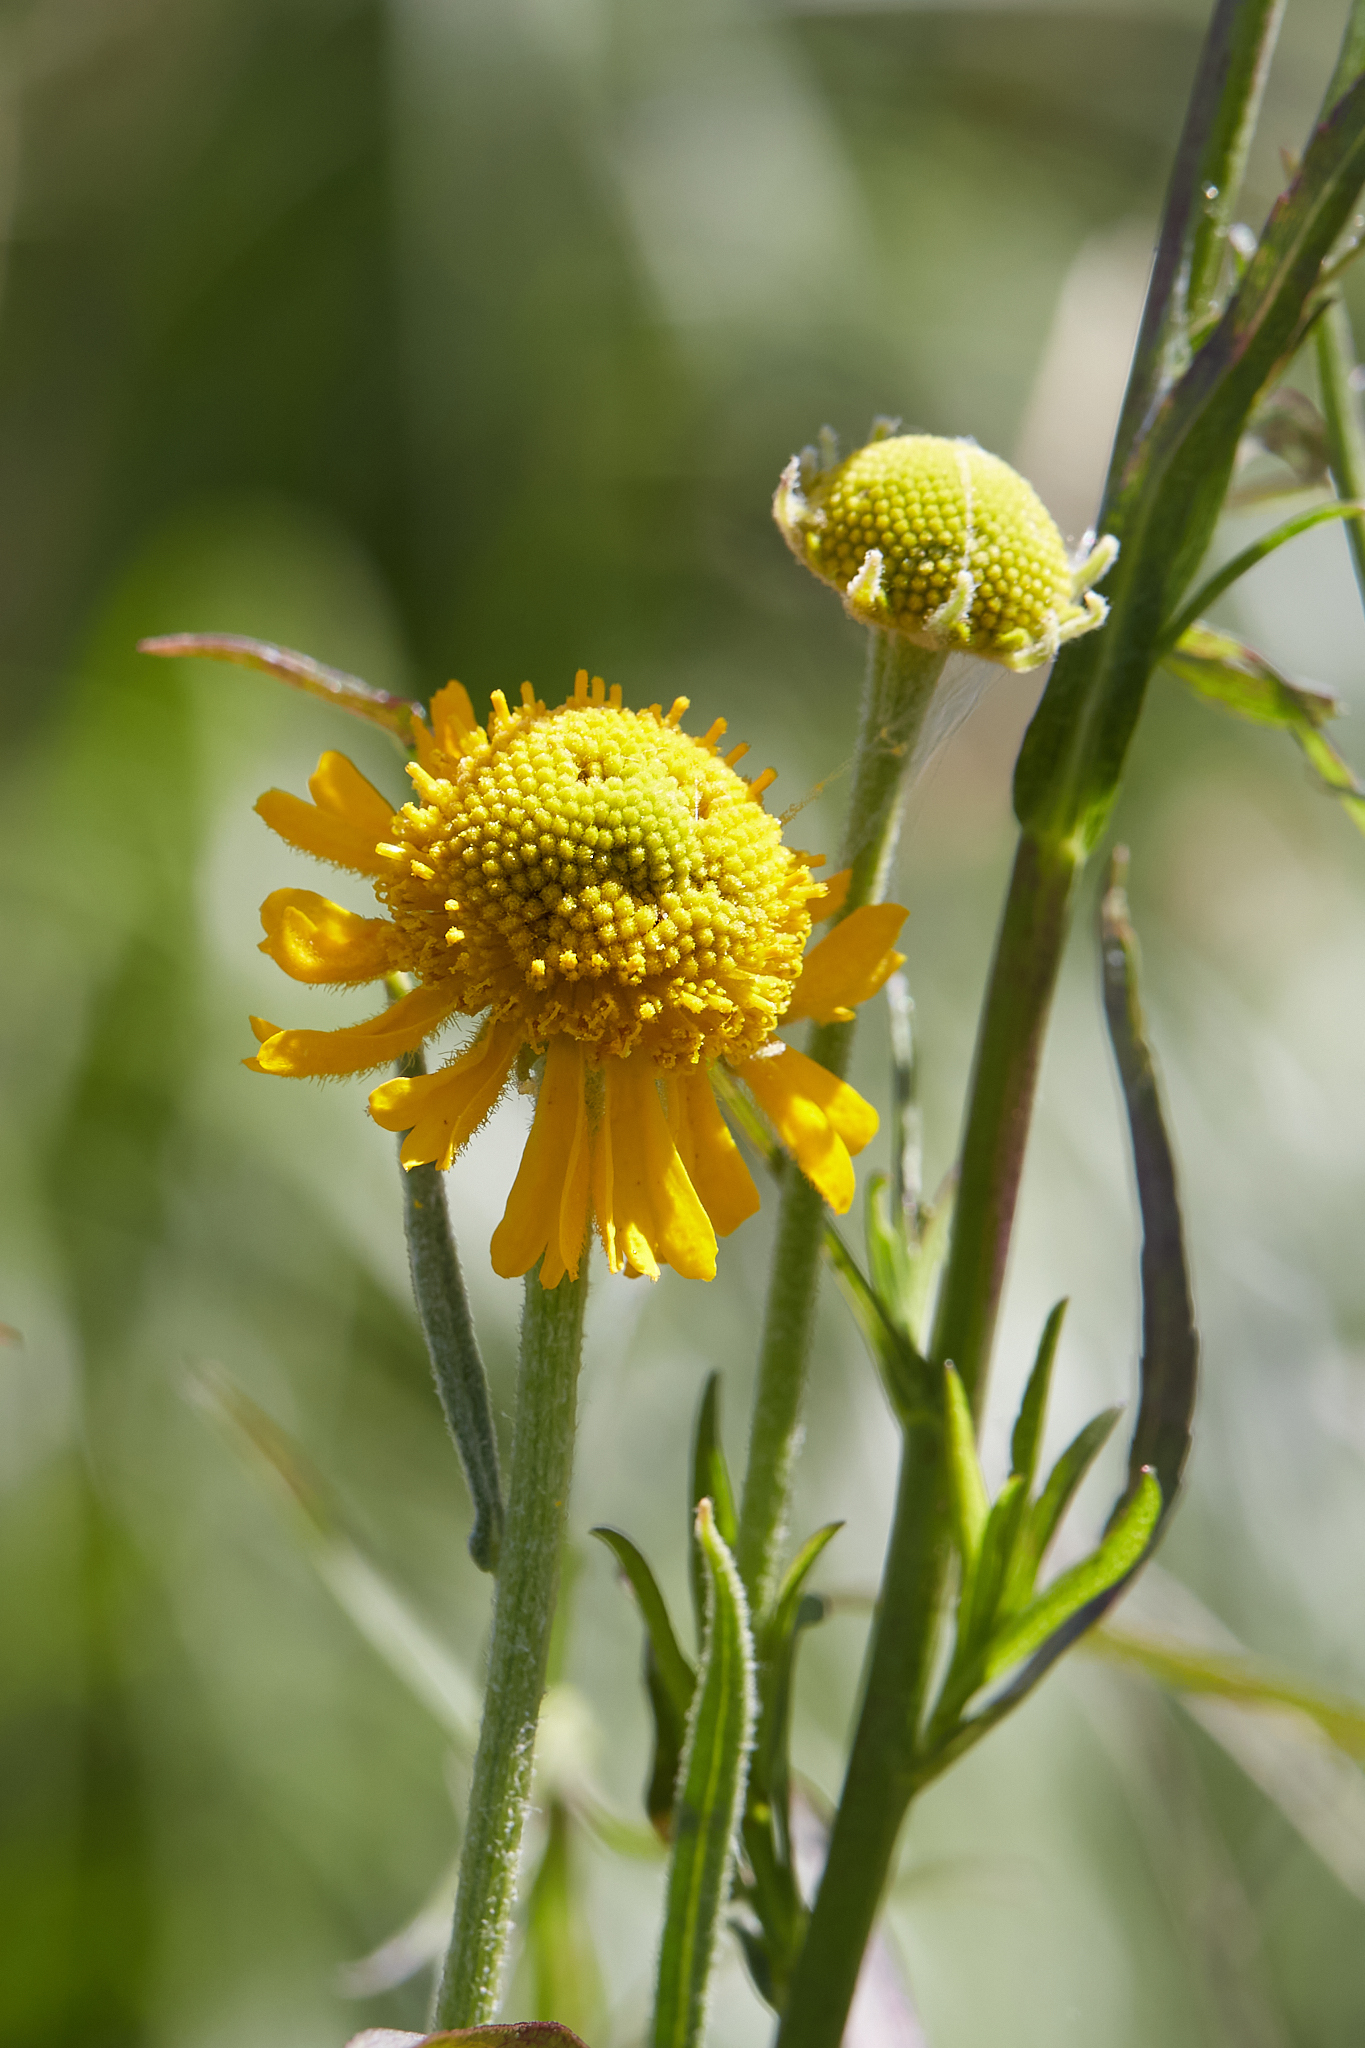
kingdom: Plantae
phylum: Tracheophyta
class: Magnoliopsida
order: Asterales
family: Asteraceae
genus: Helenium
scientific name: Helenium bigelovii
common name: Bigelow's sneezeweed
